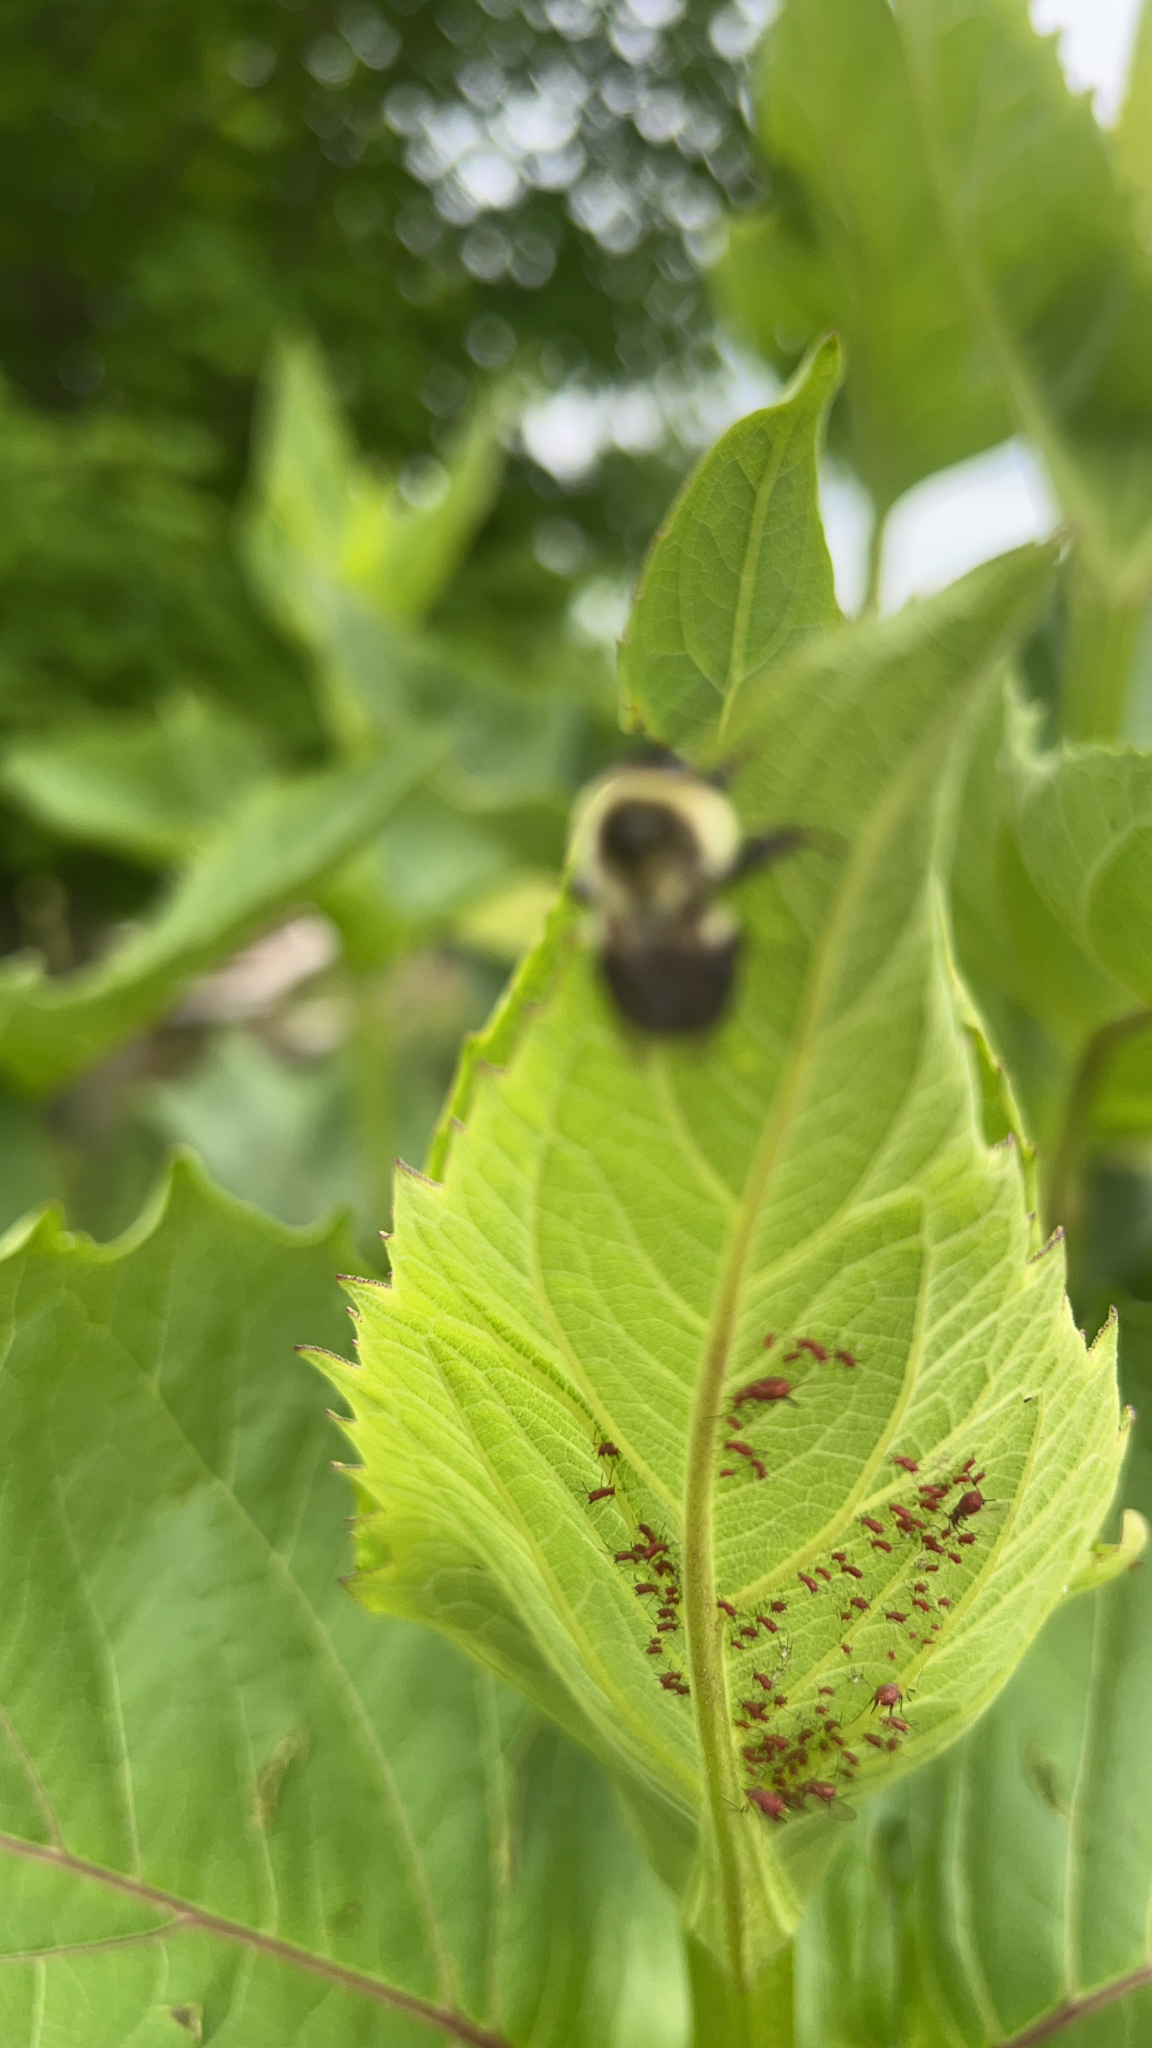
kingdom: Animalia
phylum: Arthropoda
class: Insecta
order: Hymenoptera
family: Apidae
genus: Bombus
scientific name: Bombus impatiens
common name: Common eastern bumble bee
